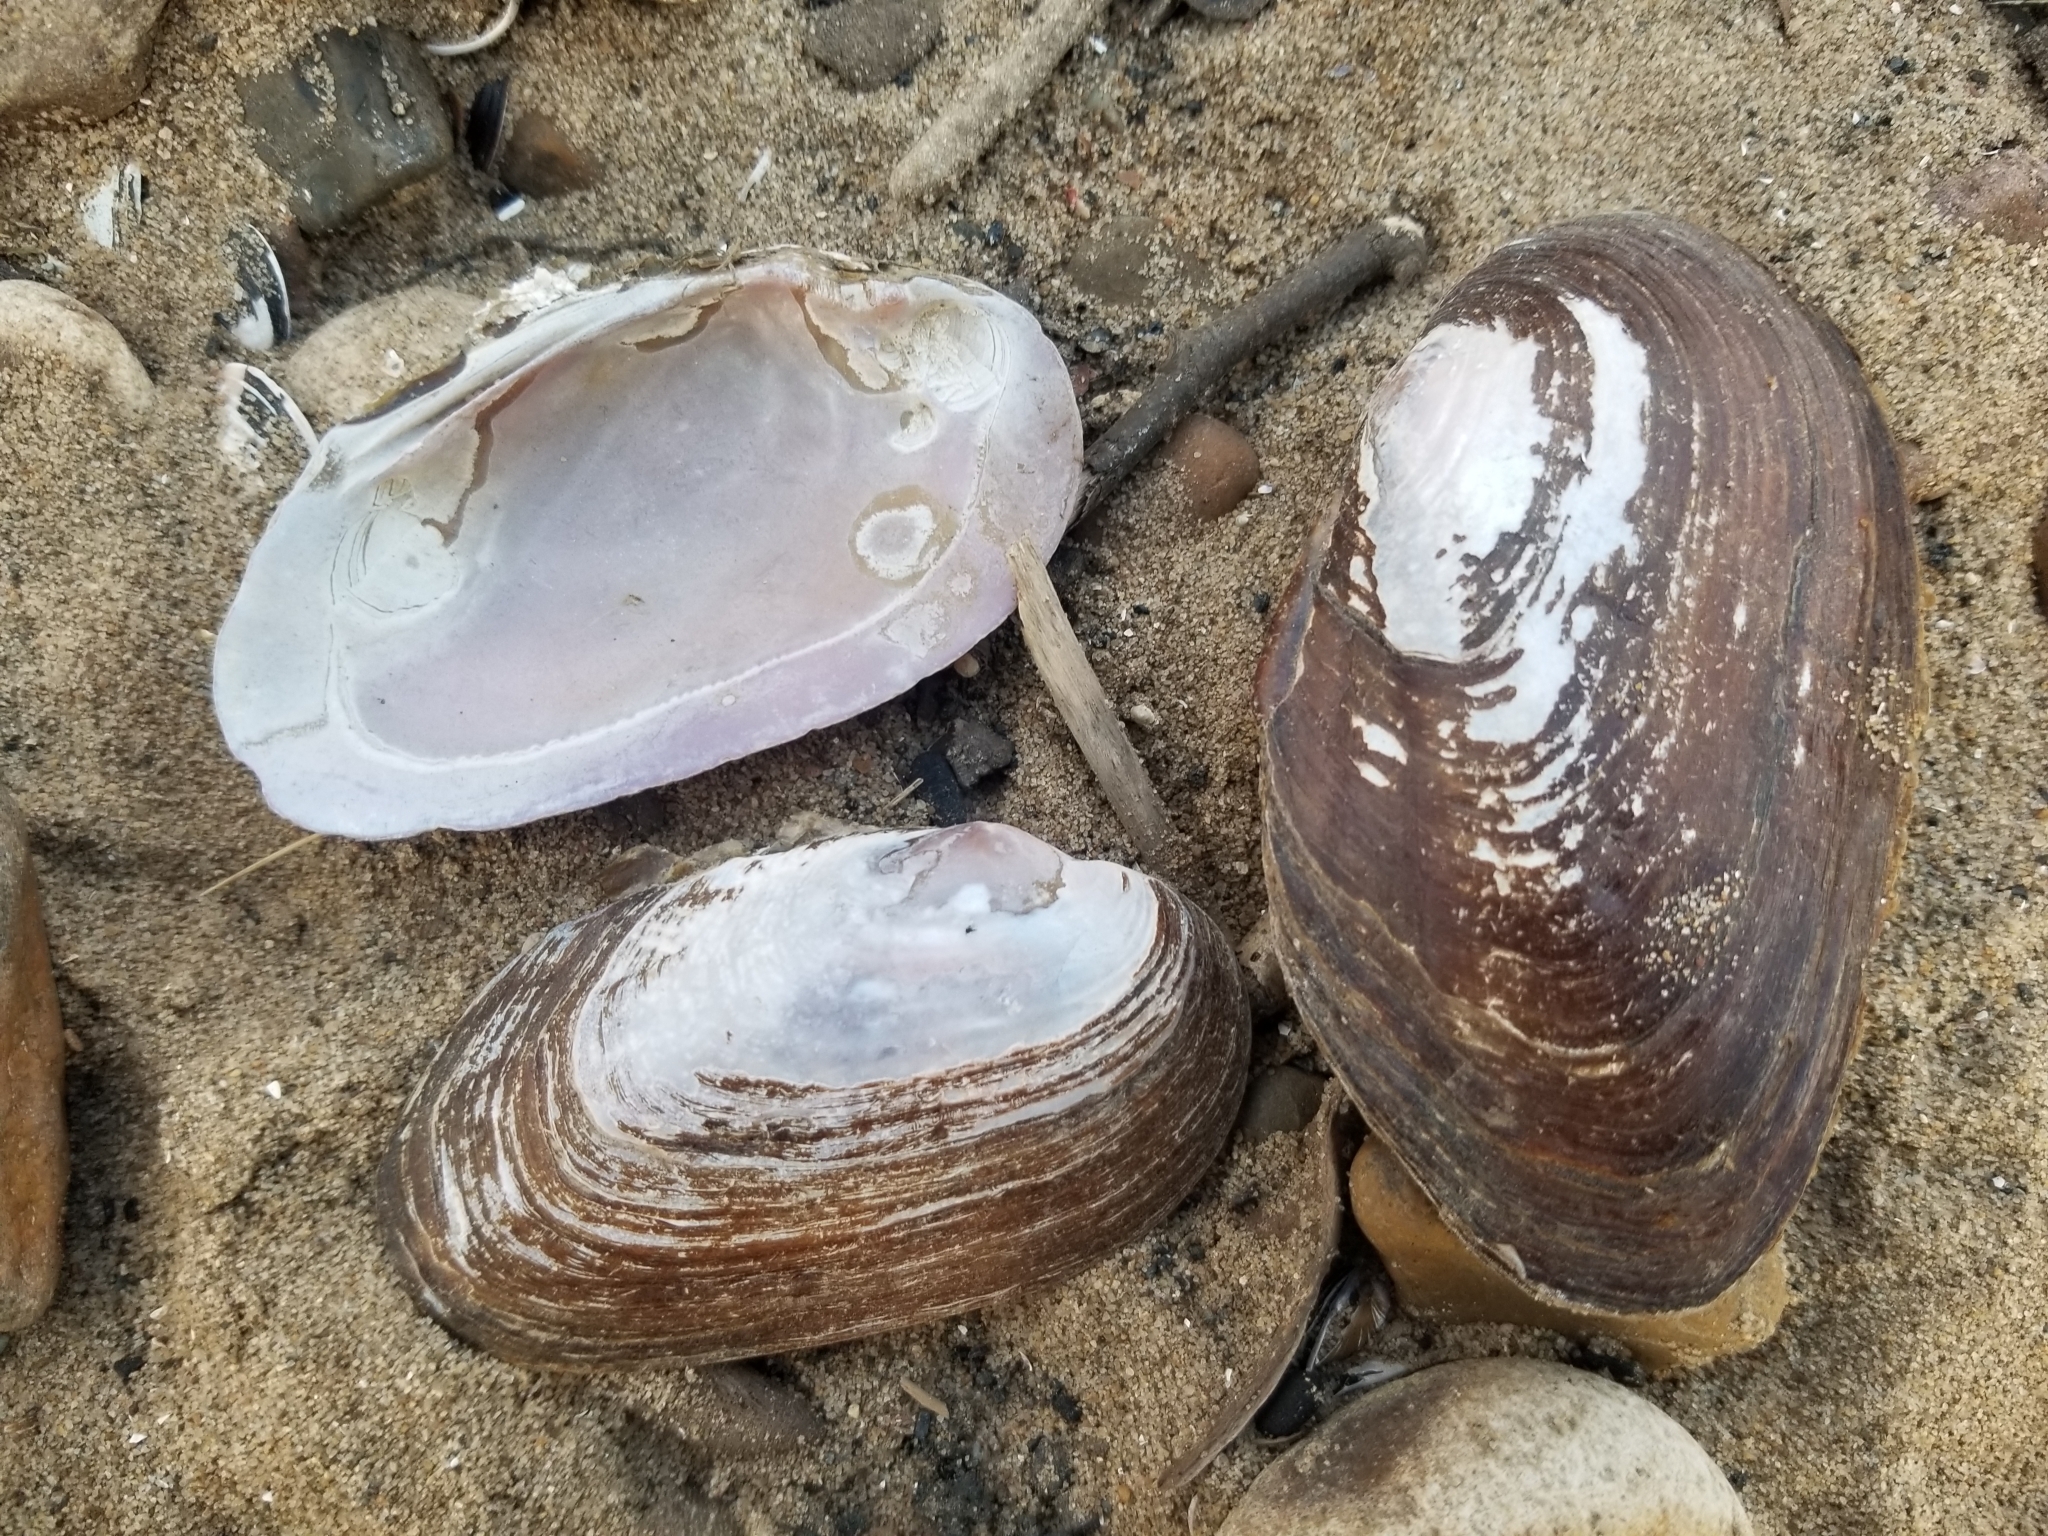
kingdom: Animalia
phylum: Mollusca
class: Bivalvia
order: Unionida
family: Unionidae
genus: Elliptio
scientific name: Elliptio complanata
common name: Eastern elliptio
